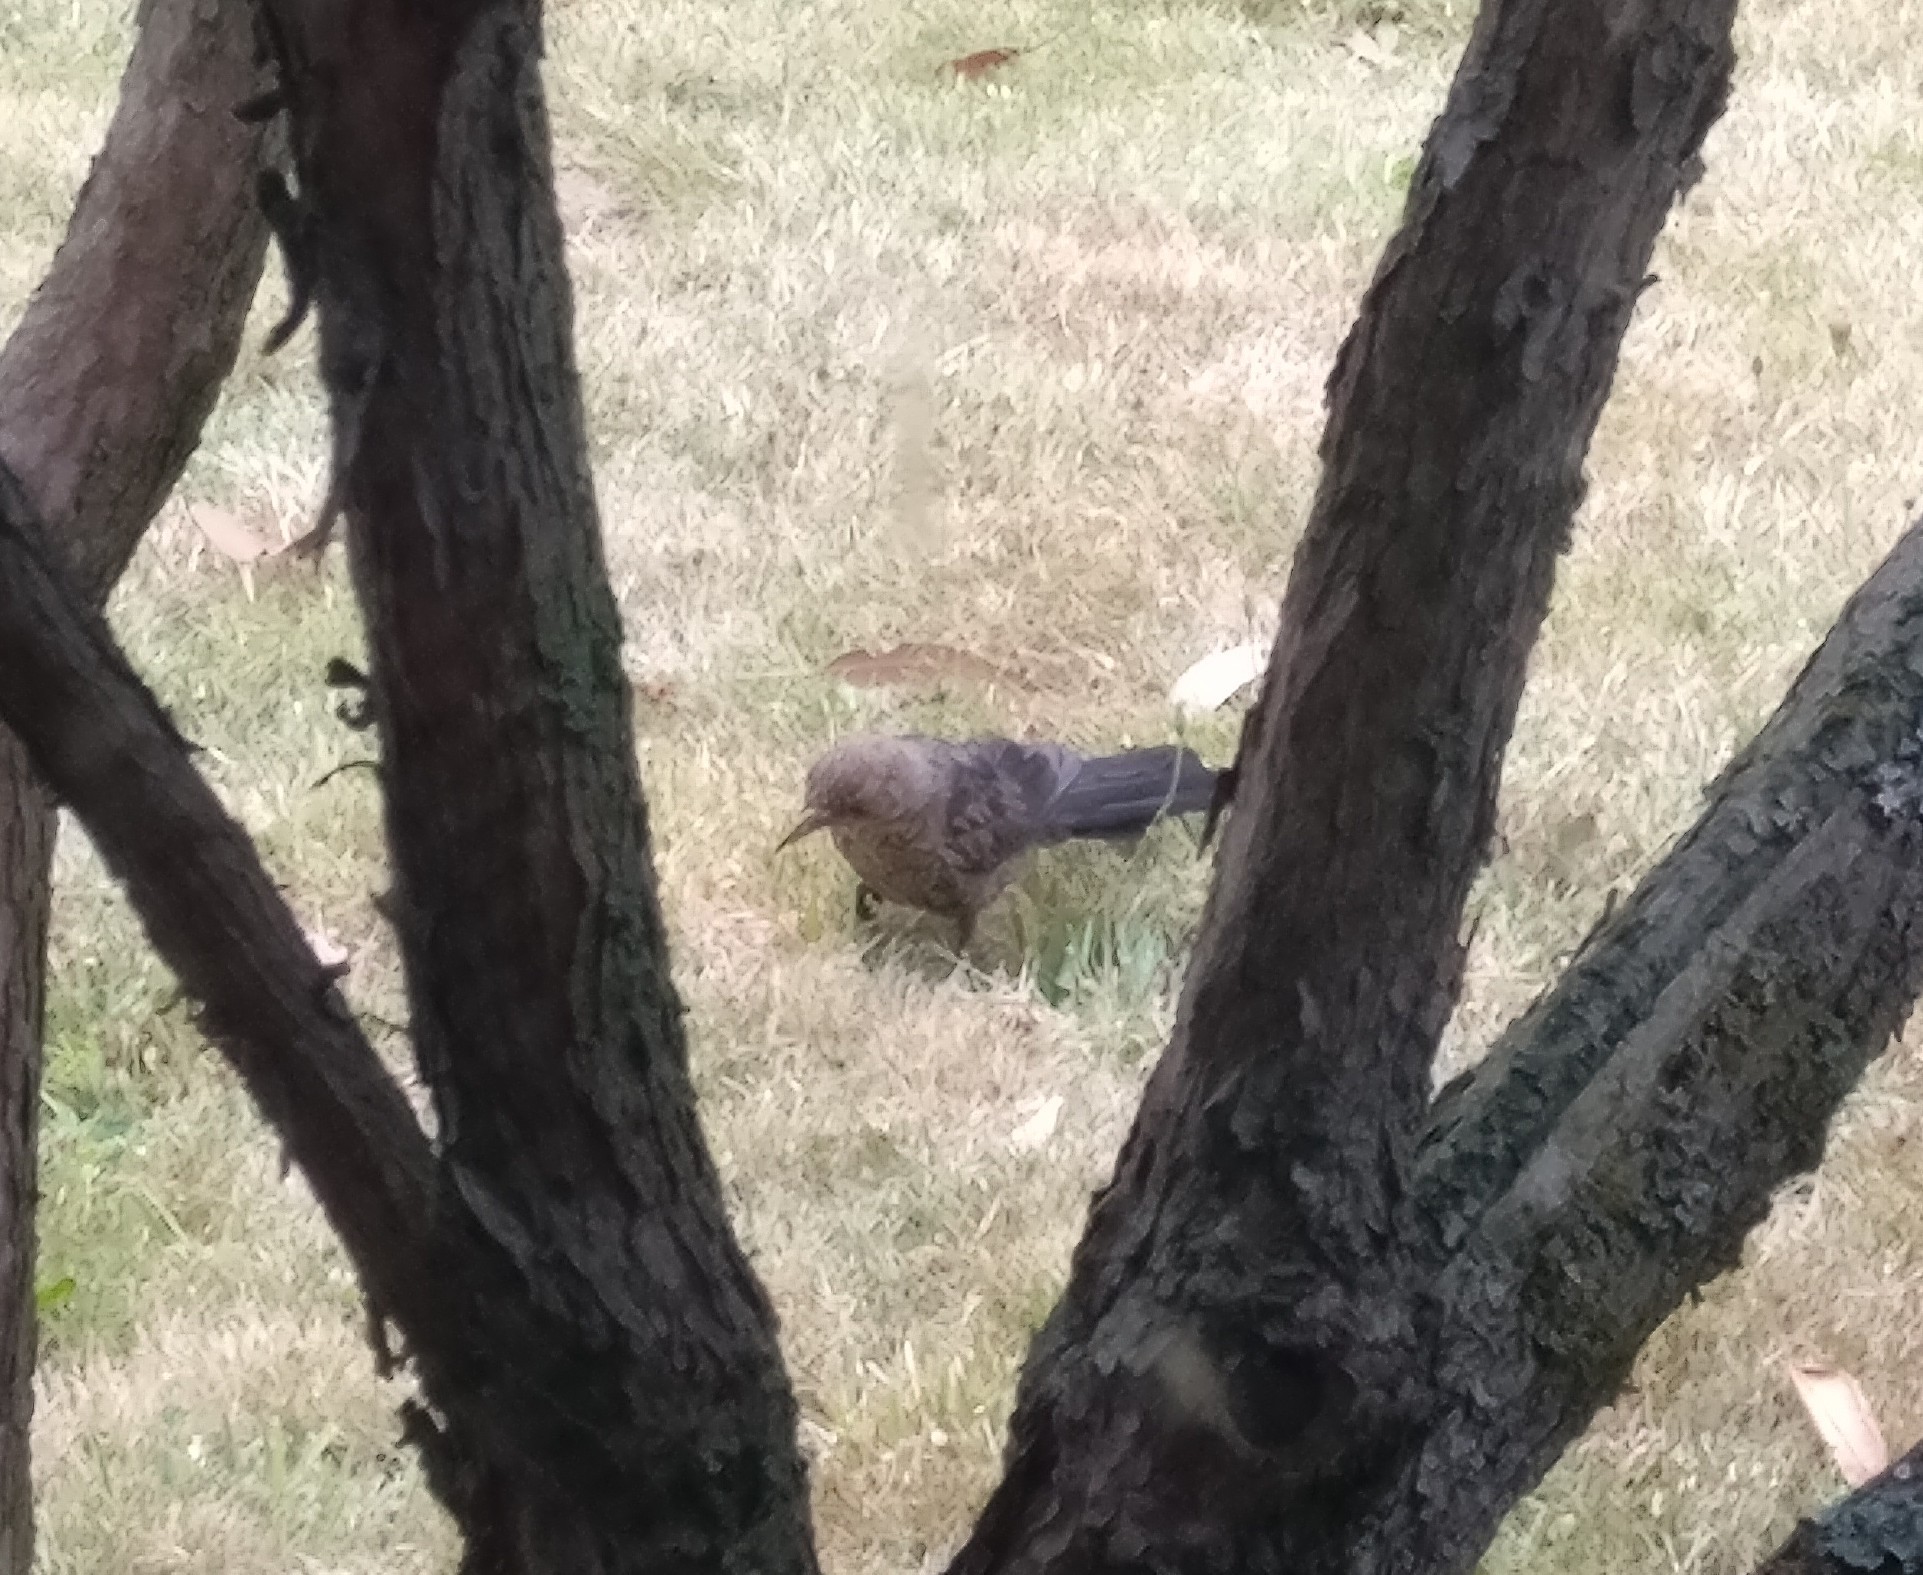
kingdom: Animalia
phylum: Chordata
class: Aves
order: Passeriformes
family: Turdidae
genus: Turdus
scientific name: Turdus merula
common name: Common blackbird
